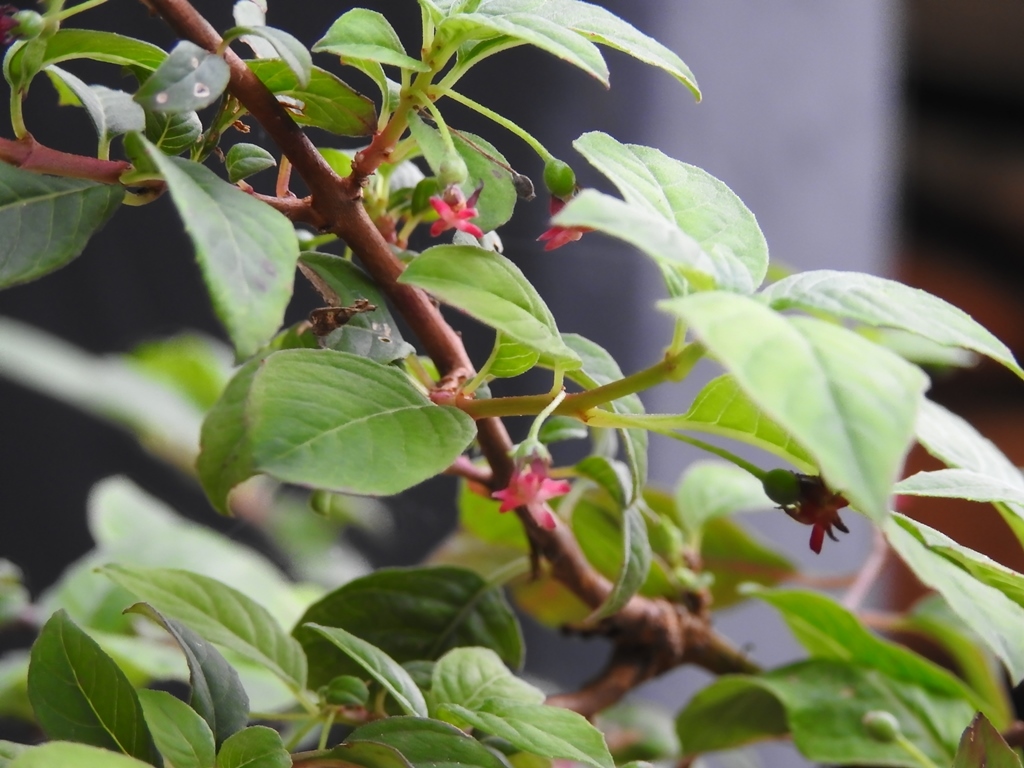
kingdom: Plantae
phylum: Tracheophyta
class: Magnoliopsida
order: Myrtales
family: Onagraceae
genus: Fuchsia
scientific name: Fuchsia encliandra
